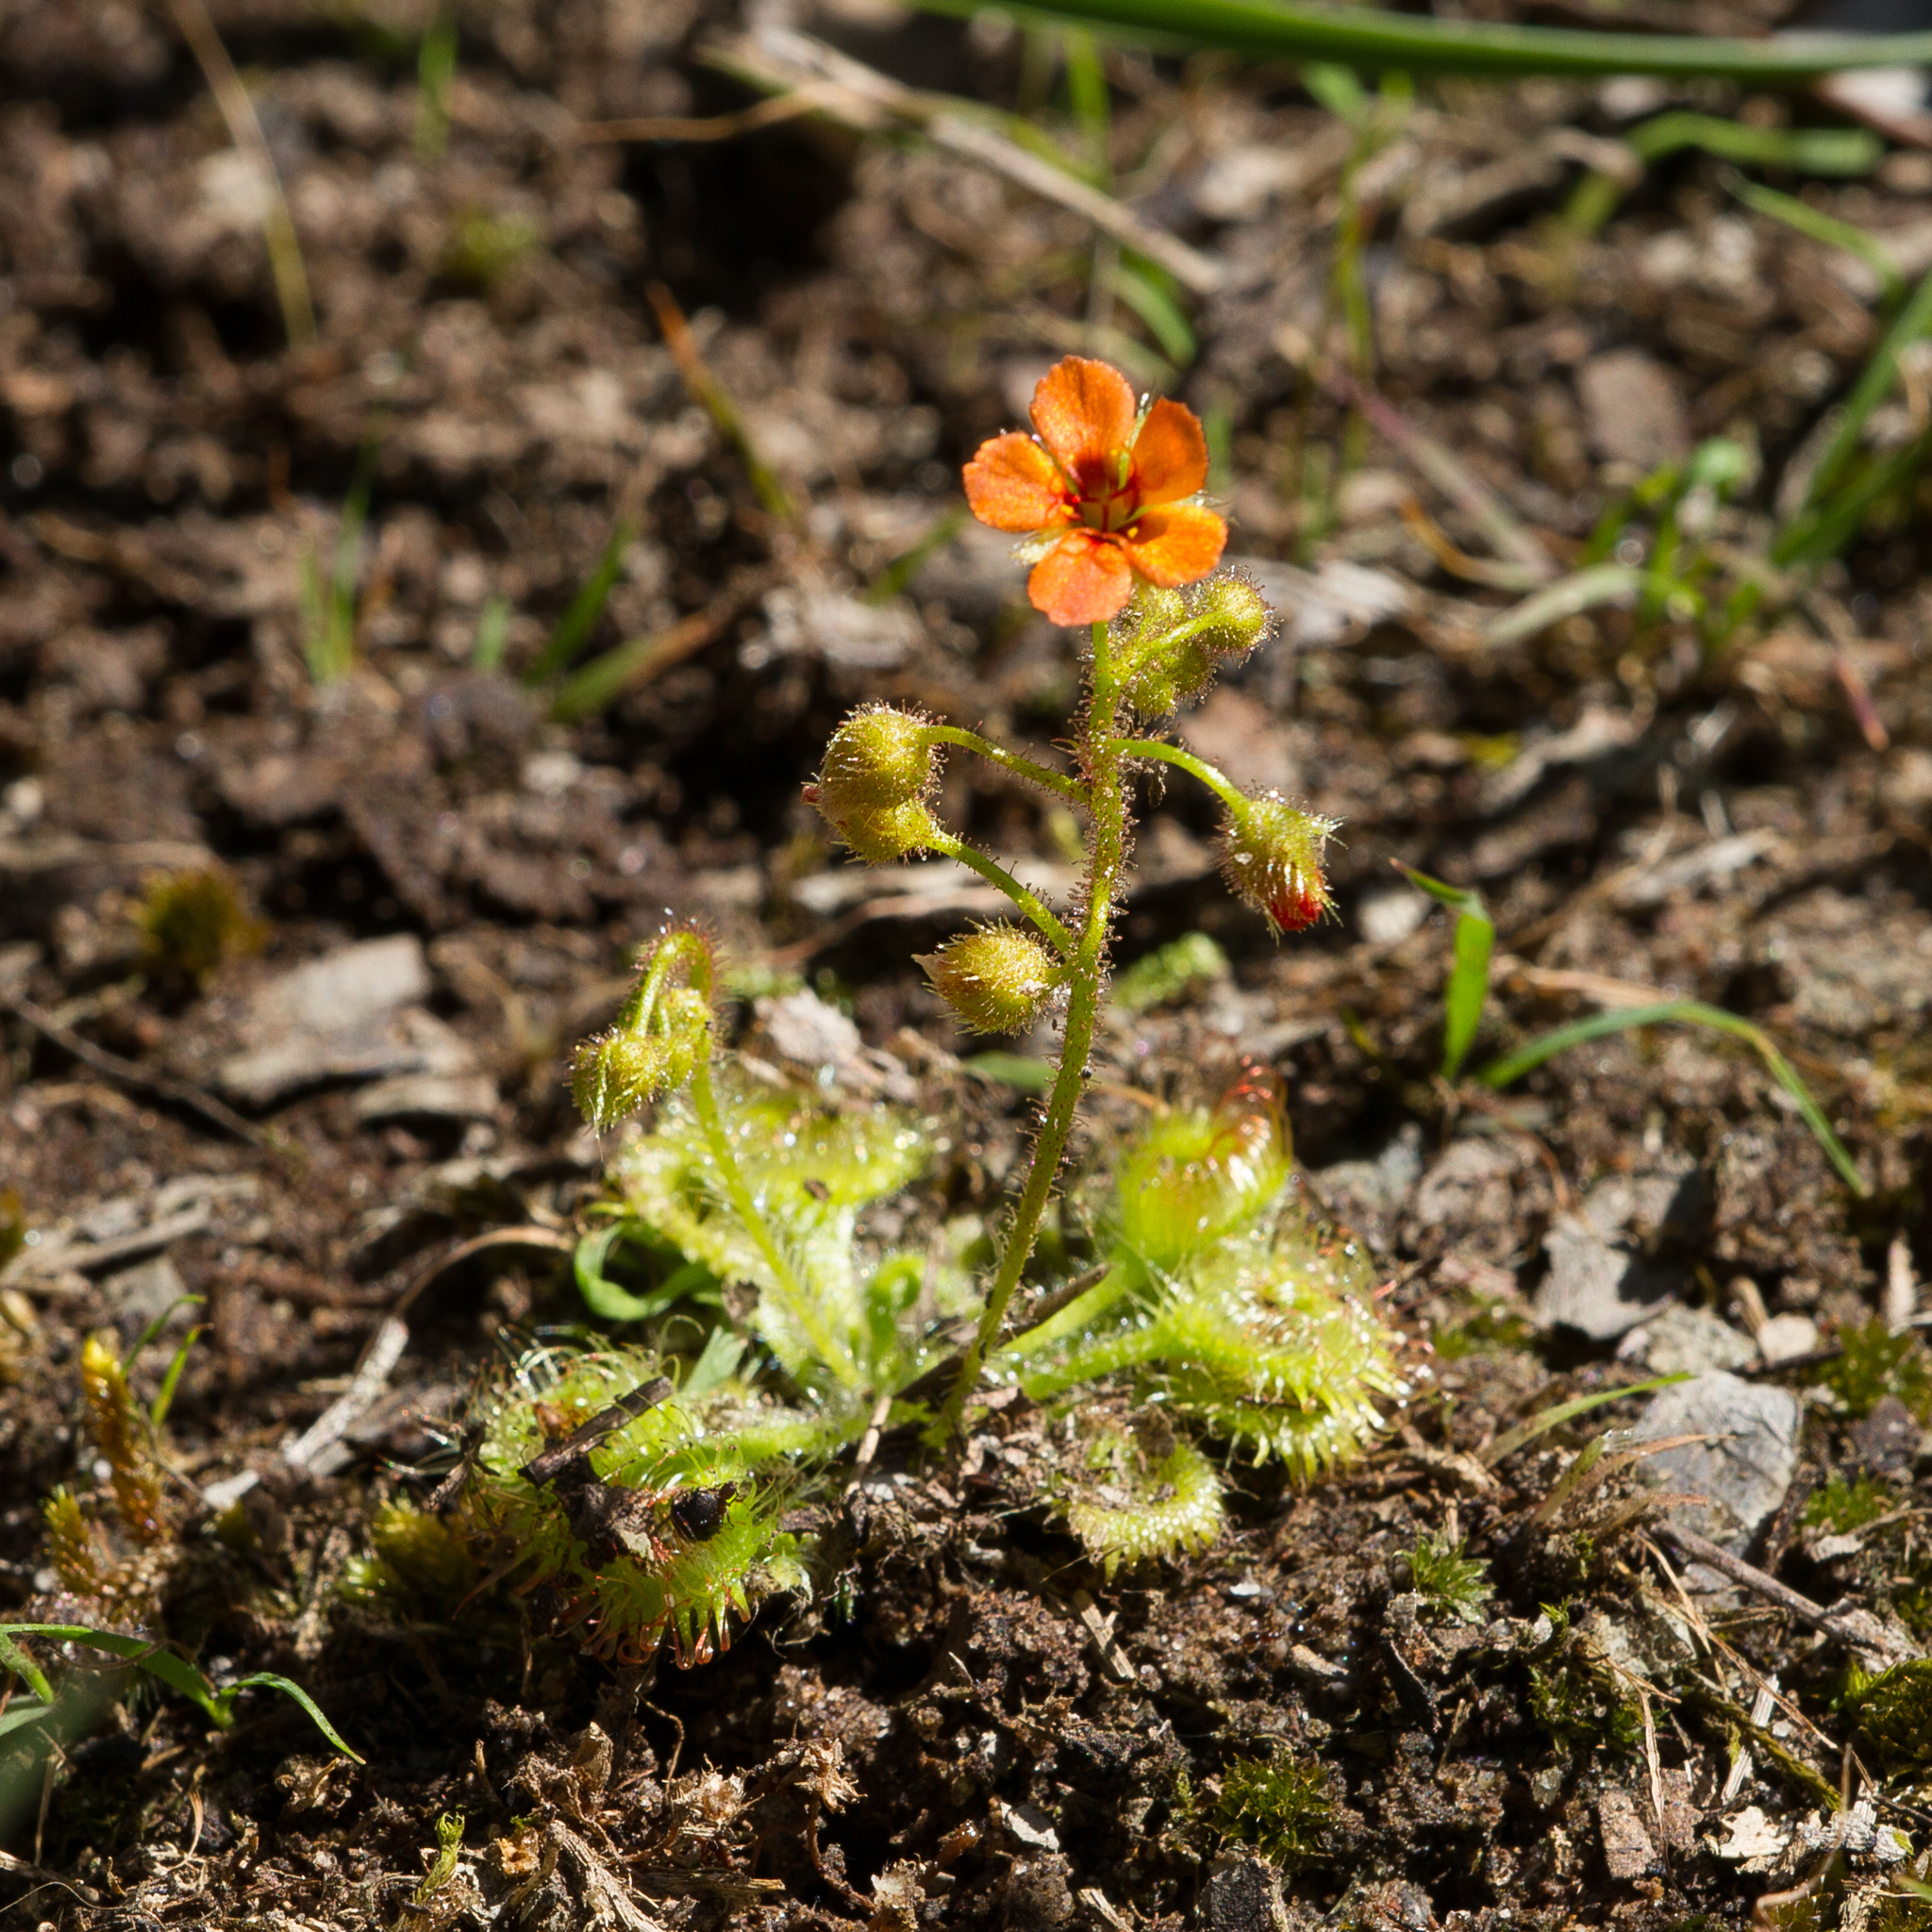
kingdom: Plantae
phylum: Tracheophyta
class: Magnoliopsida
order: Caryophyllales
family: Droseraceae
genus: Drosera
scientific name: Drosera glanduligera
